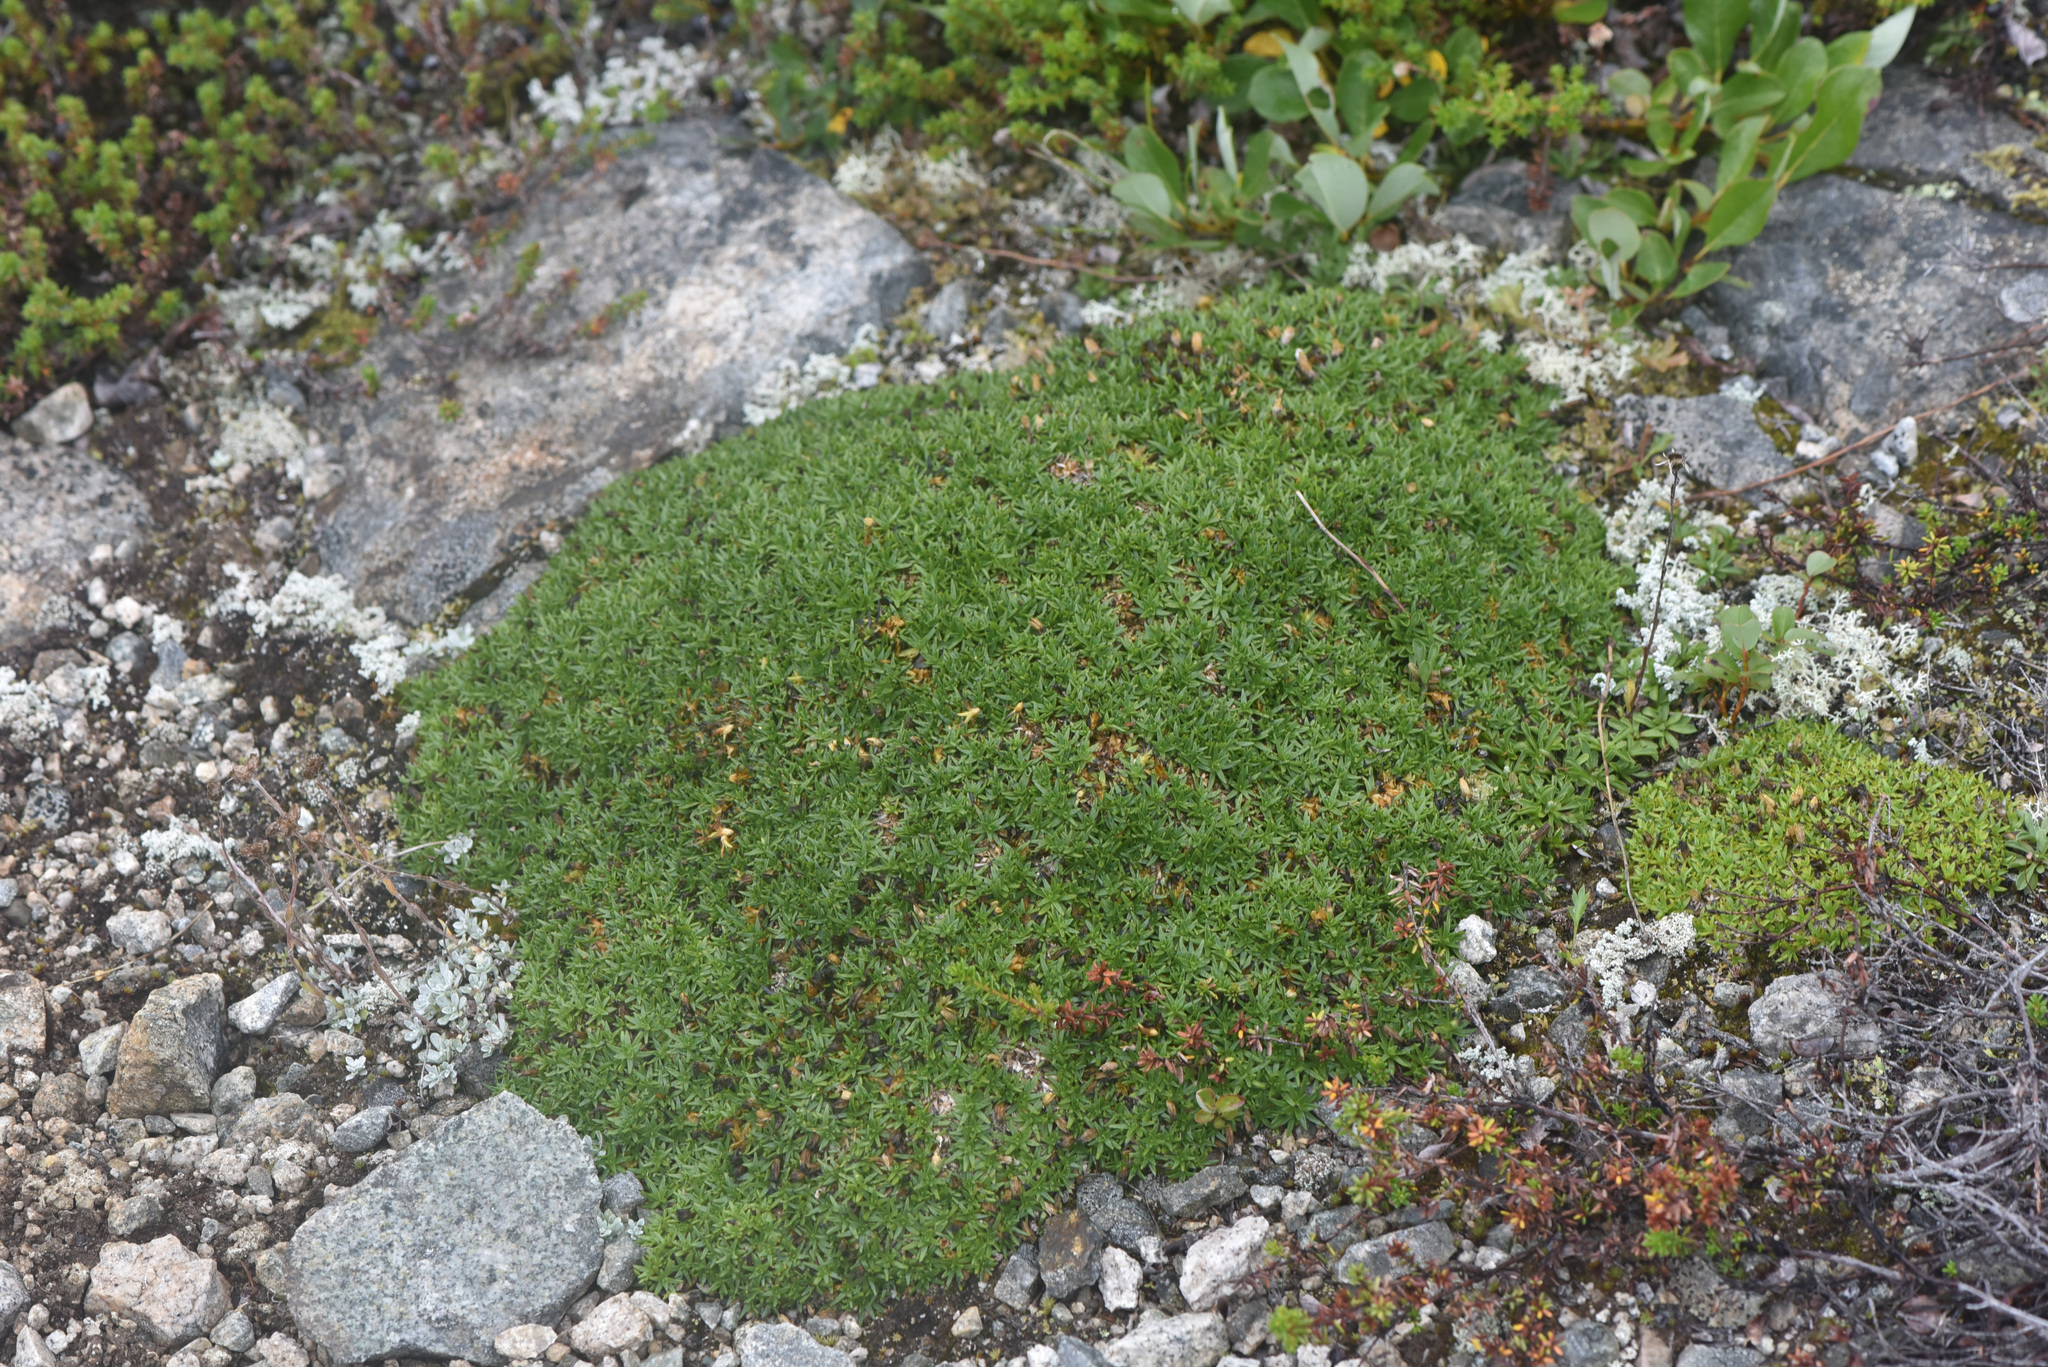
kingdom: Plantae
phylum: Tracheophyta
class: Magnoliopsida
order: Caryophyllales
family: Caryophyllaceae
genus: Silene
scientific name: Silene acaulis
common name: Moss campion
